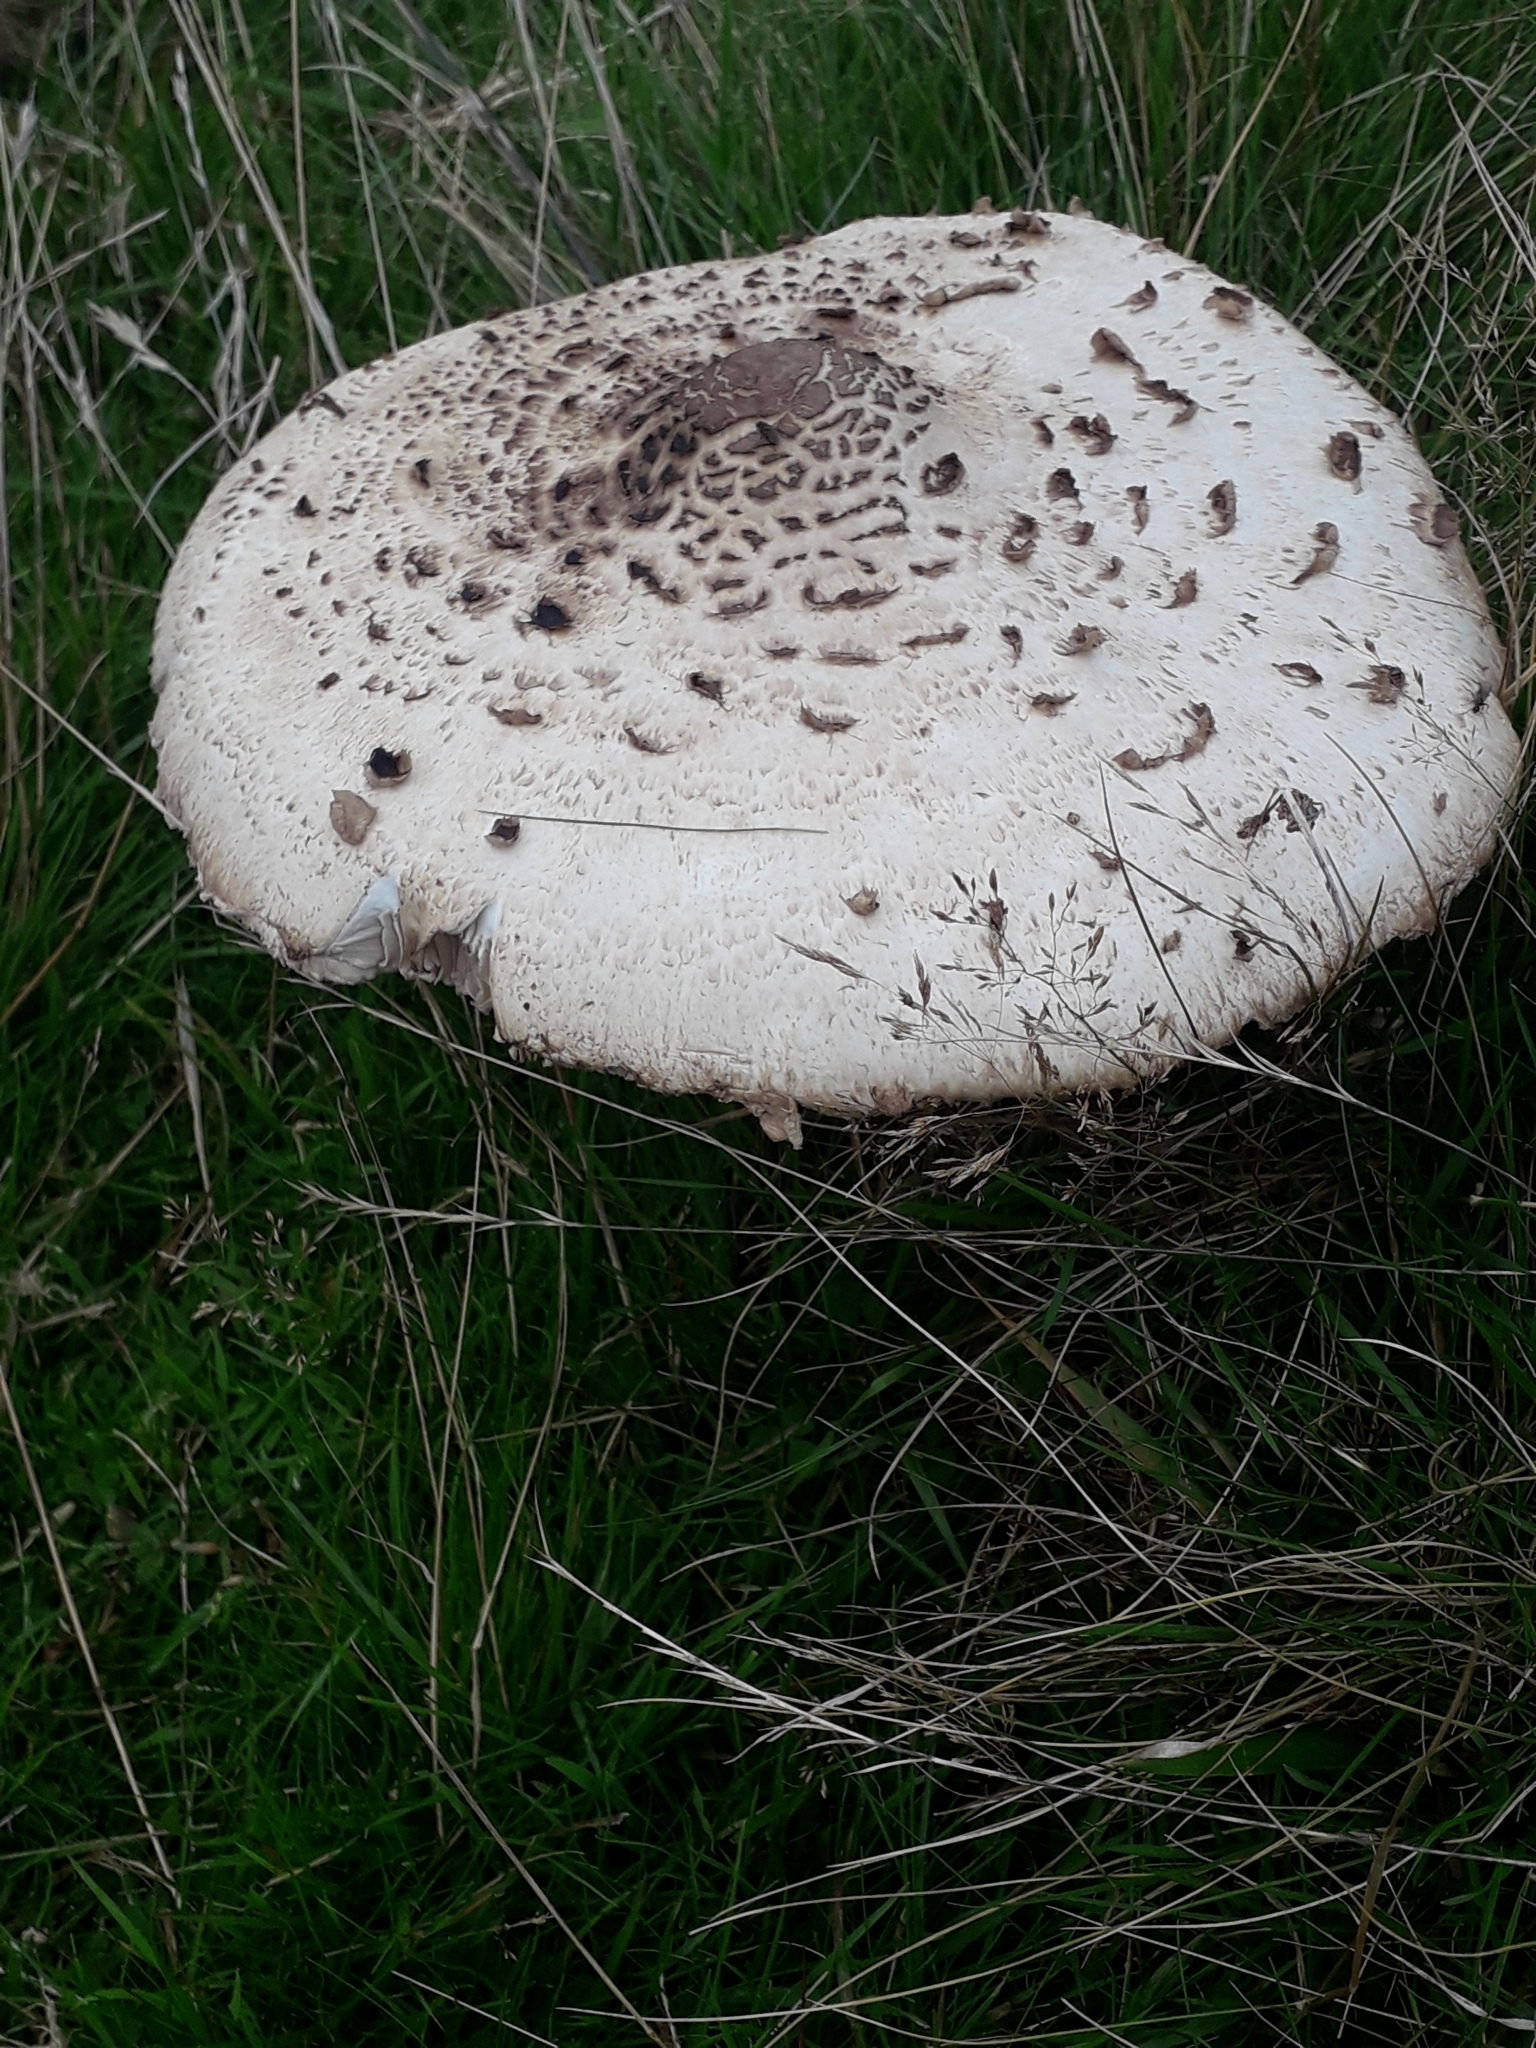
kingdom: Fungi
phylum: Basidiomycota
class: Agaricomycetes
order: Agaricales
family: Agaricaceae
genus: Macrolepiota
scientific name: Macrolepiota procera
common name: Parasol
